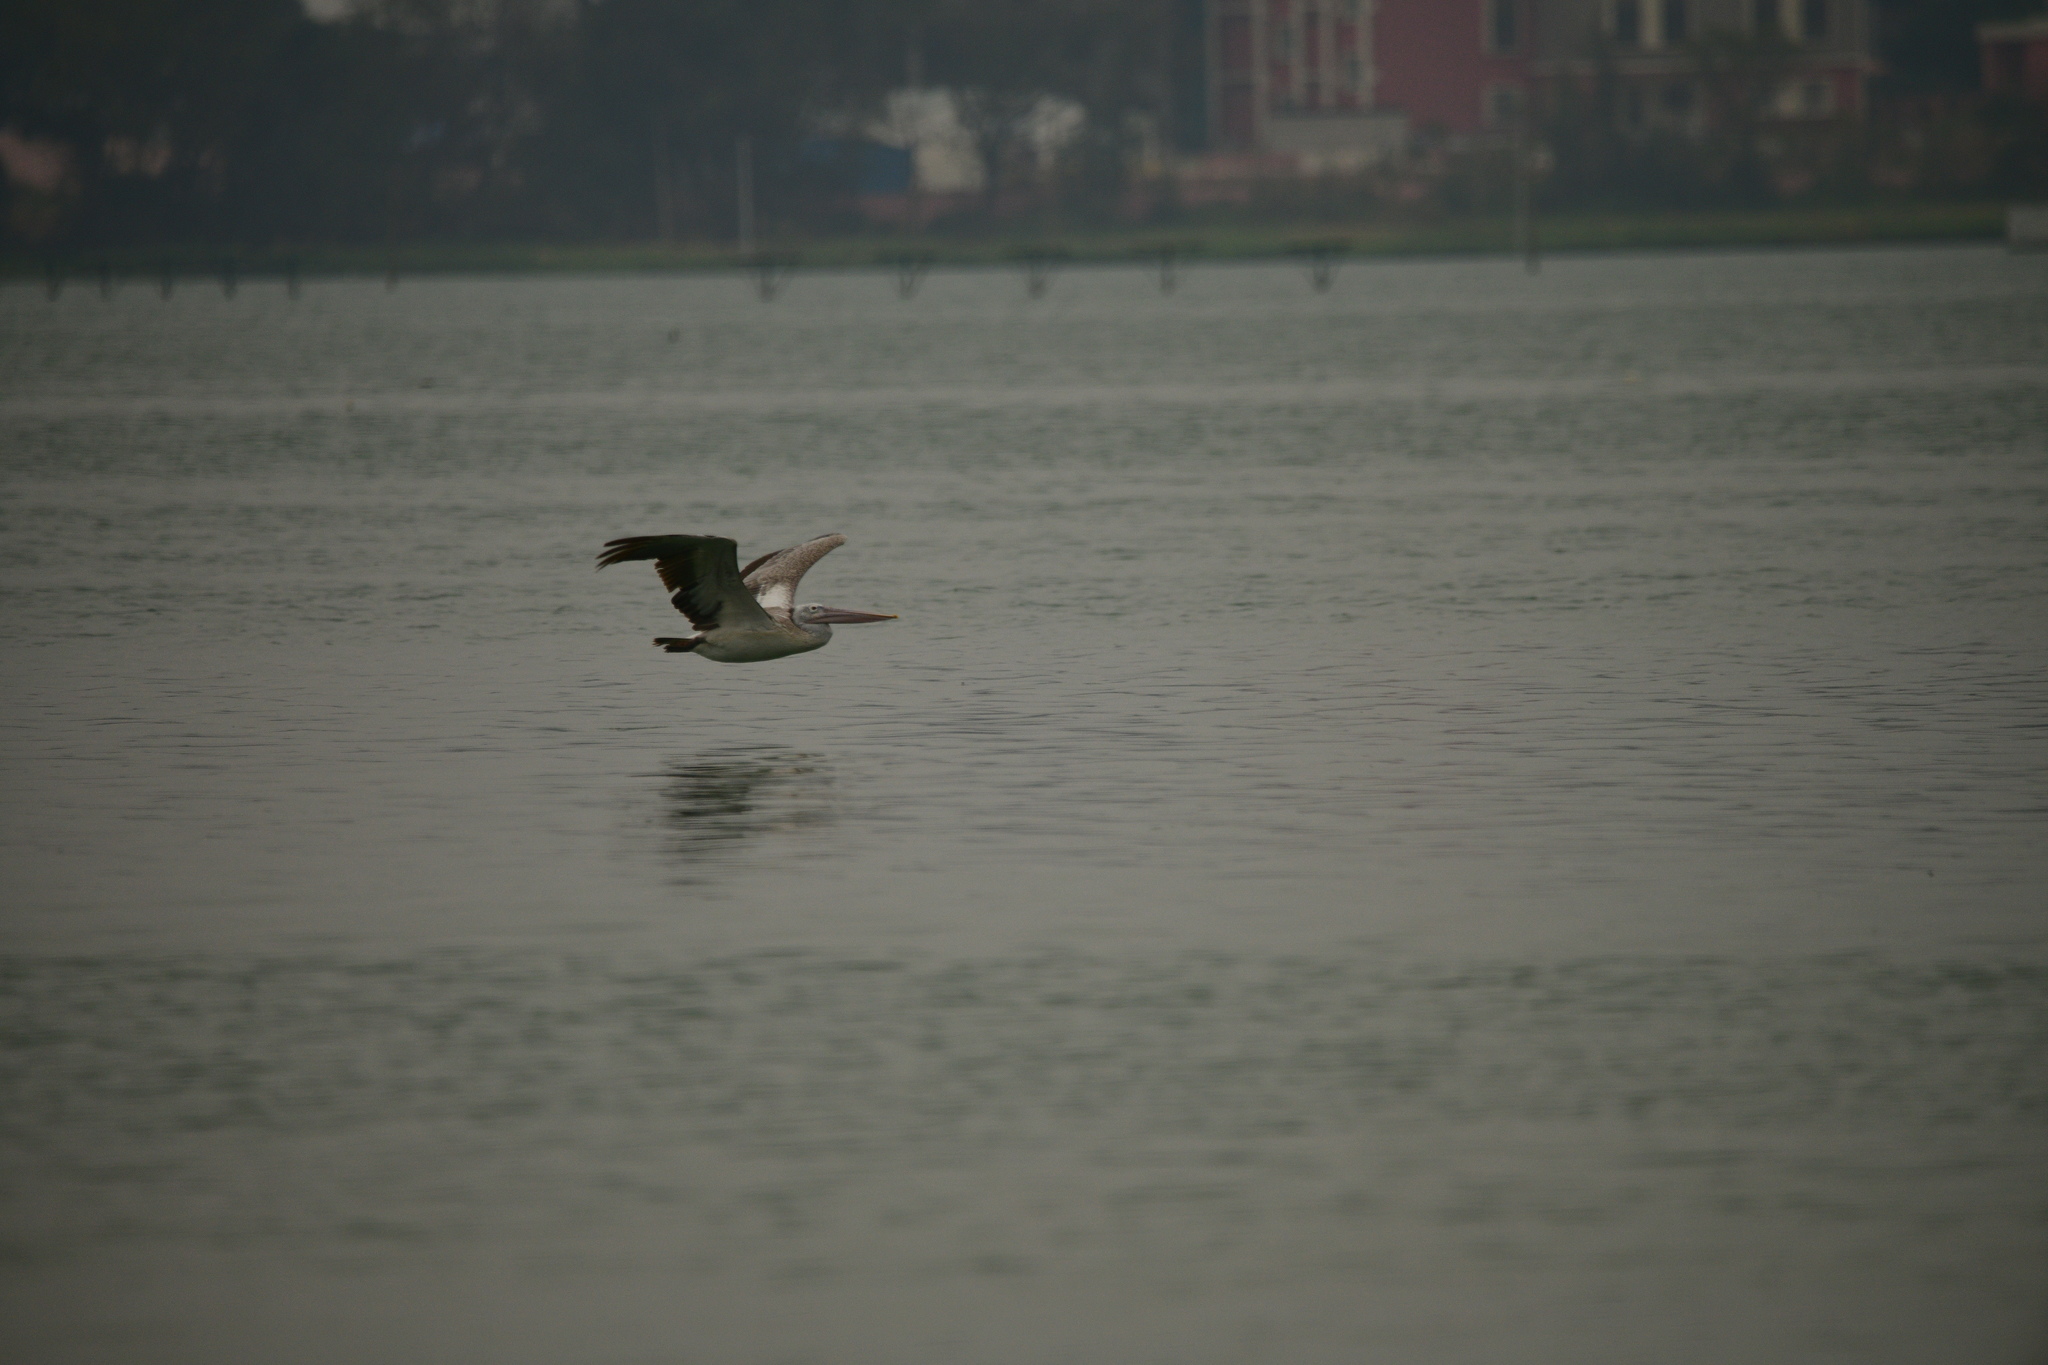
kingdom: Animalia
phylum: Chordata
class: Aves
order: Pelecaniformes
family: Pelecanidae
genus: Pelecanus
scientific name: Pelecanus philippensis
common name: Spot-billed pelican
